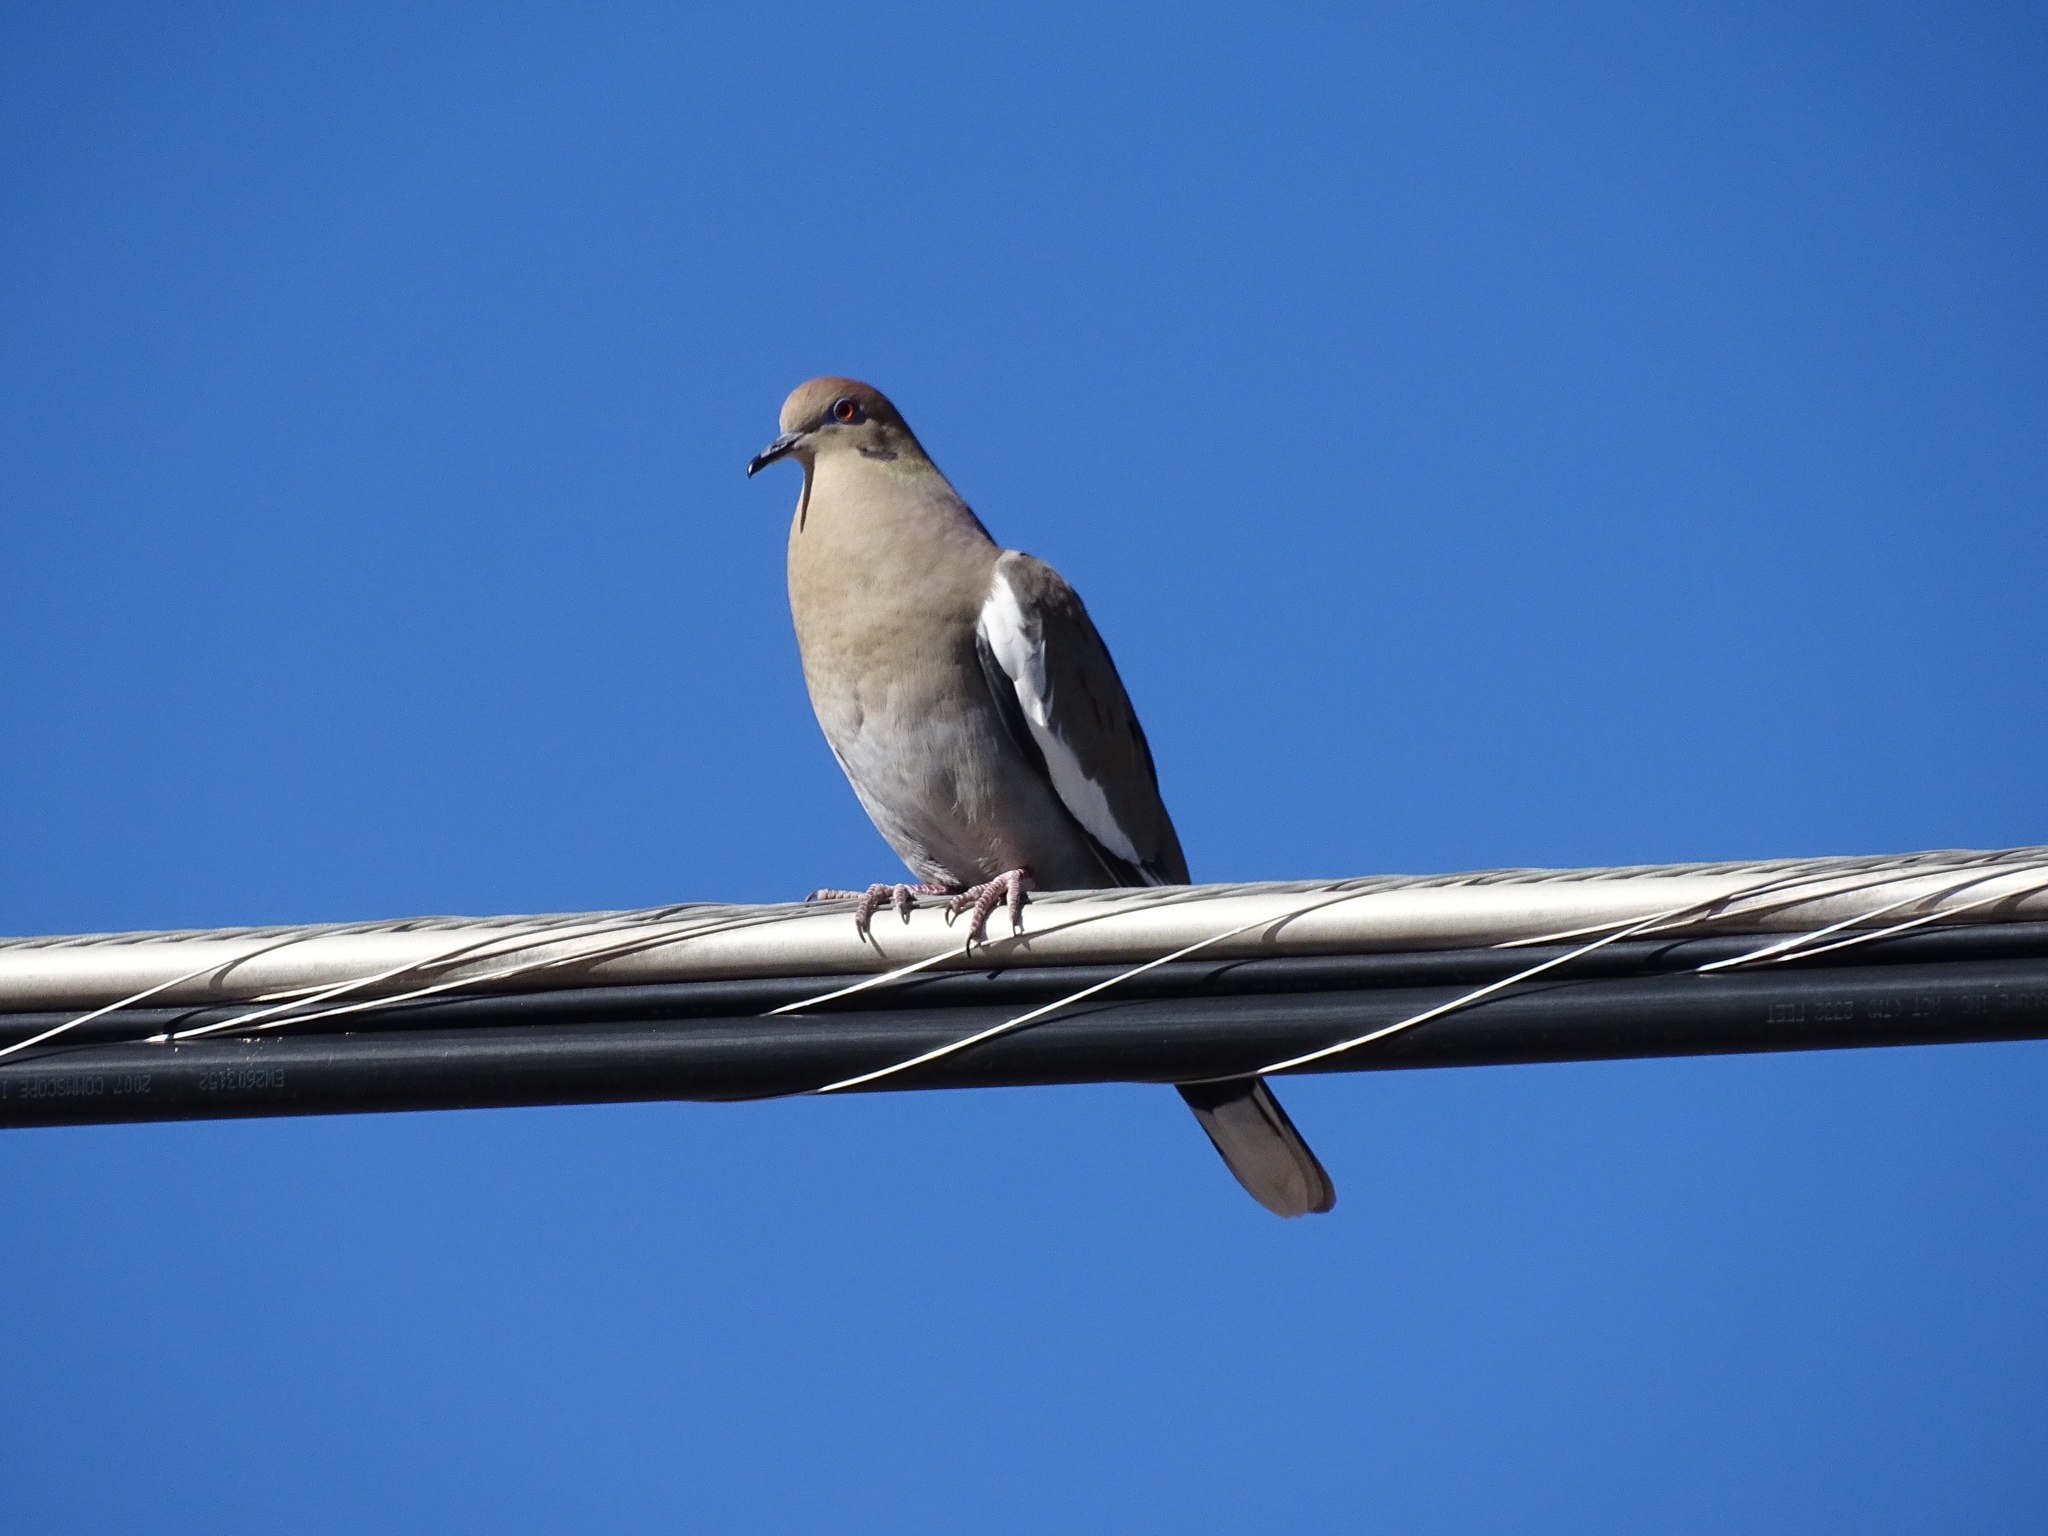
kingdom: Animalia
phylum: Chordata
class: Aves
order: Columbiformes
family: Columbidae
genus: Zenaida
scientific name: Zenaida asiatica
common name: White-winged dove
